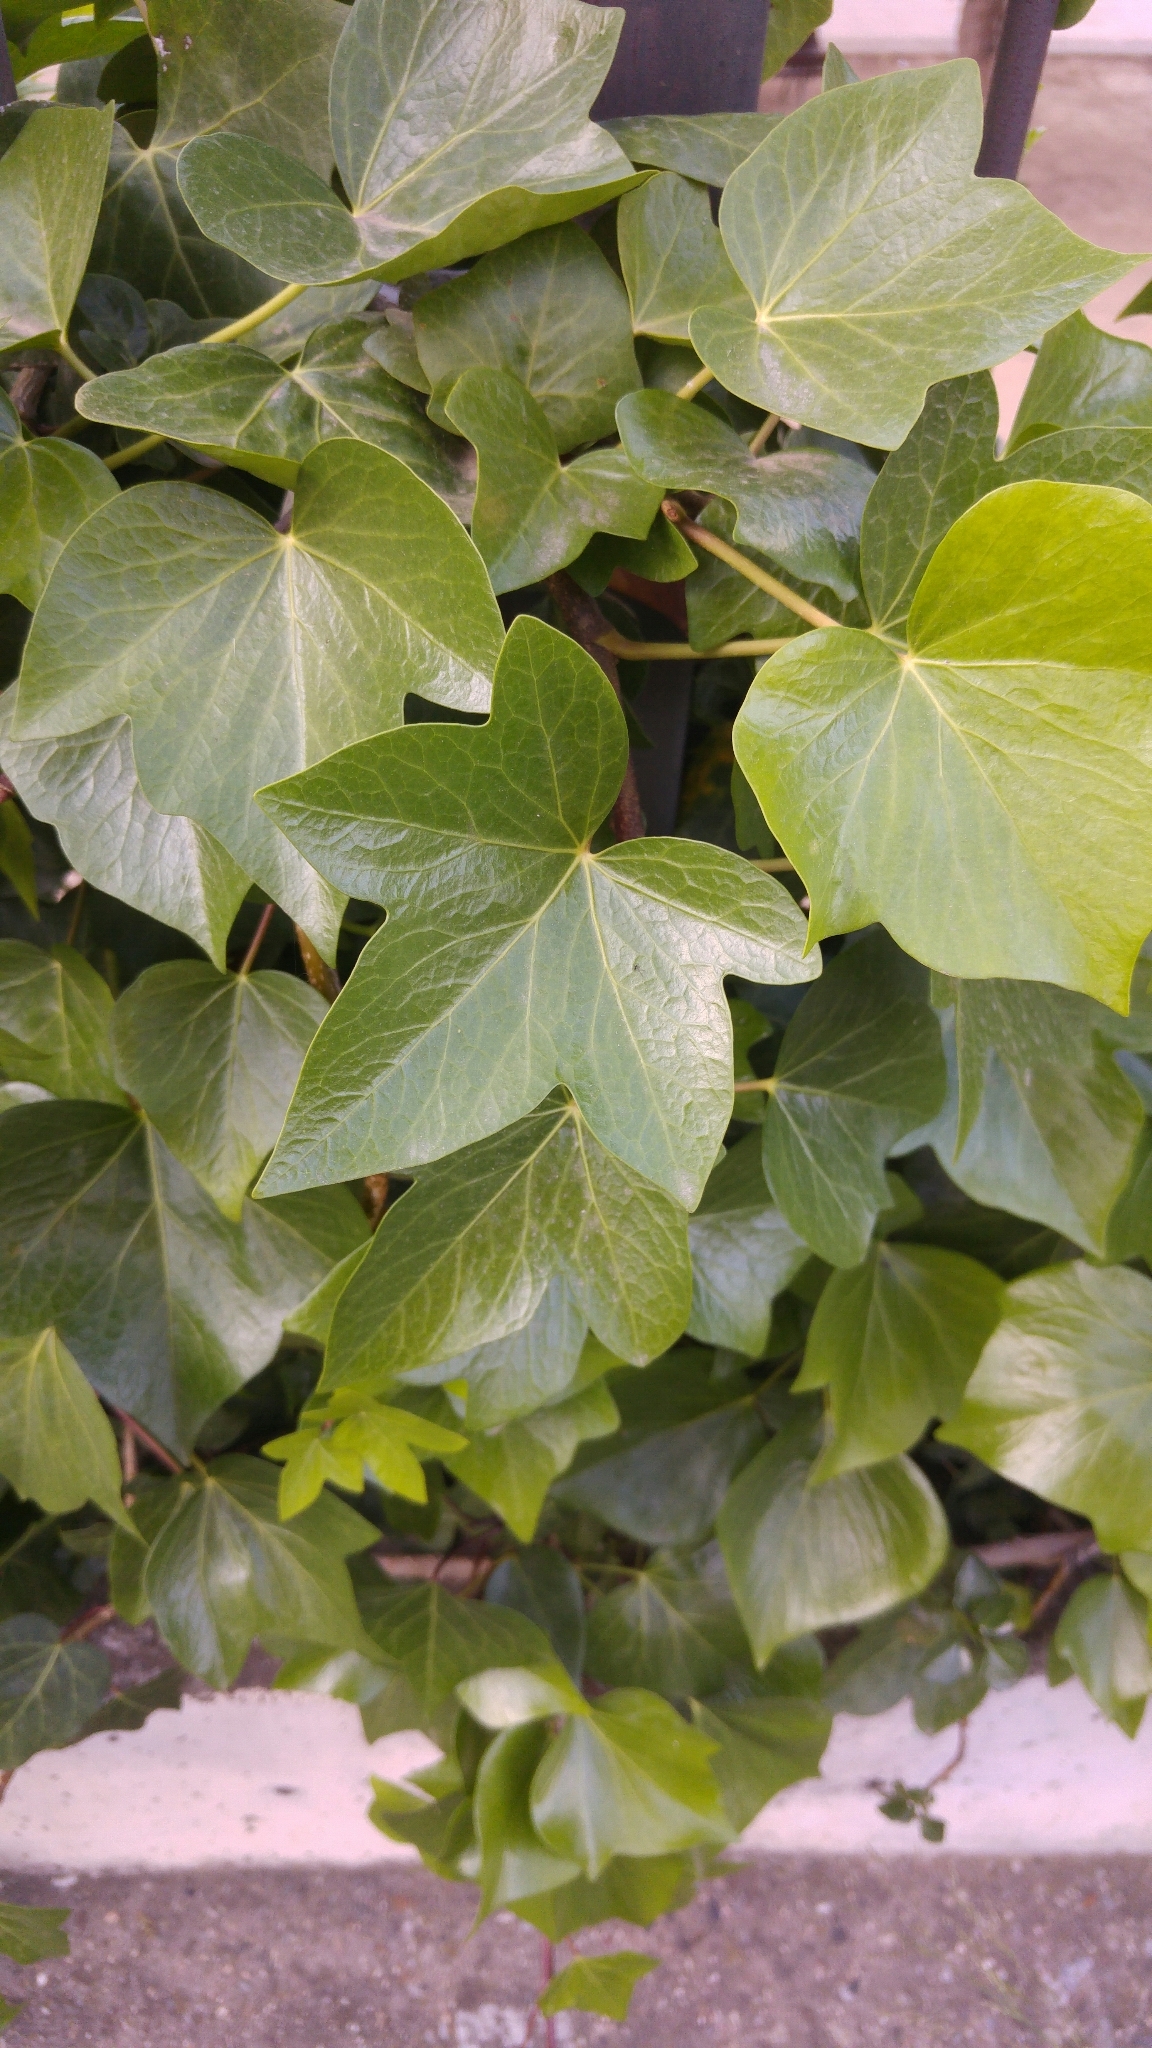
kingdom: Plantae
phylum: Tracheophyta
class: Magnoliopsida
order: Apiales
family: Araliaceae
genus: Hedera
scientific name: Hedera helix
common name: Ivy
